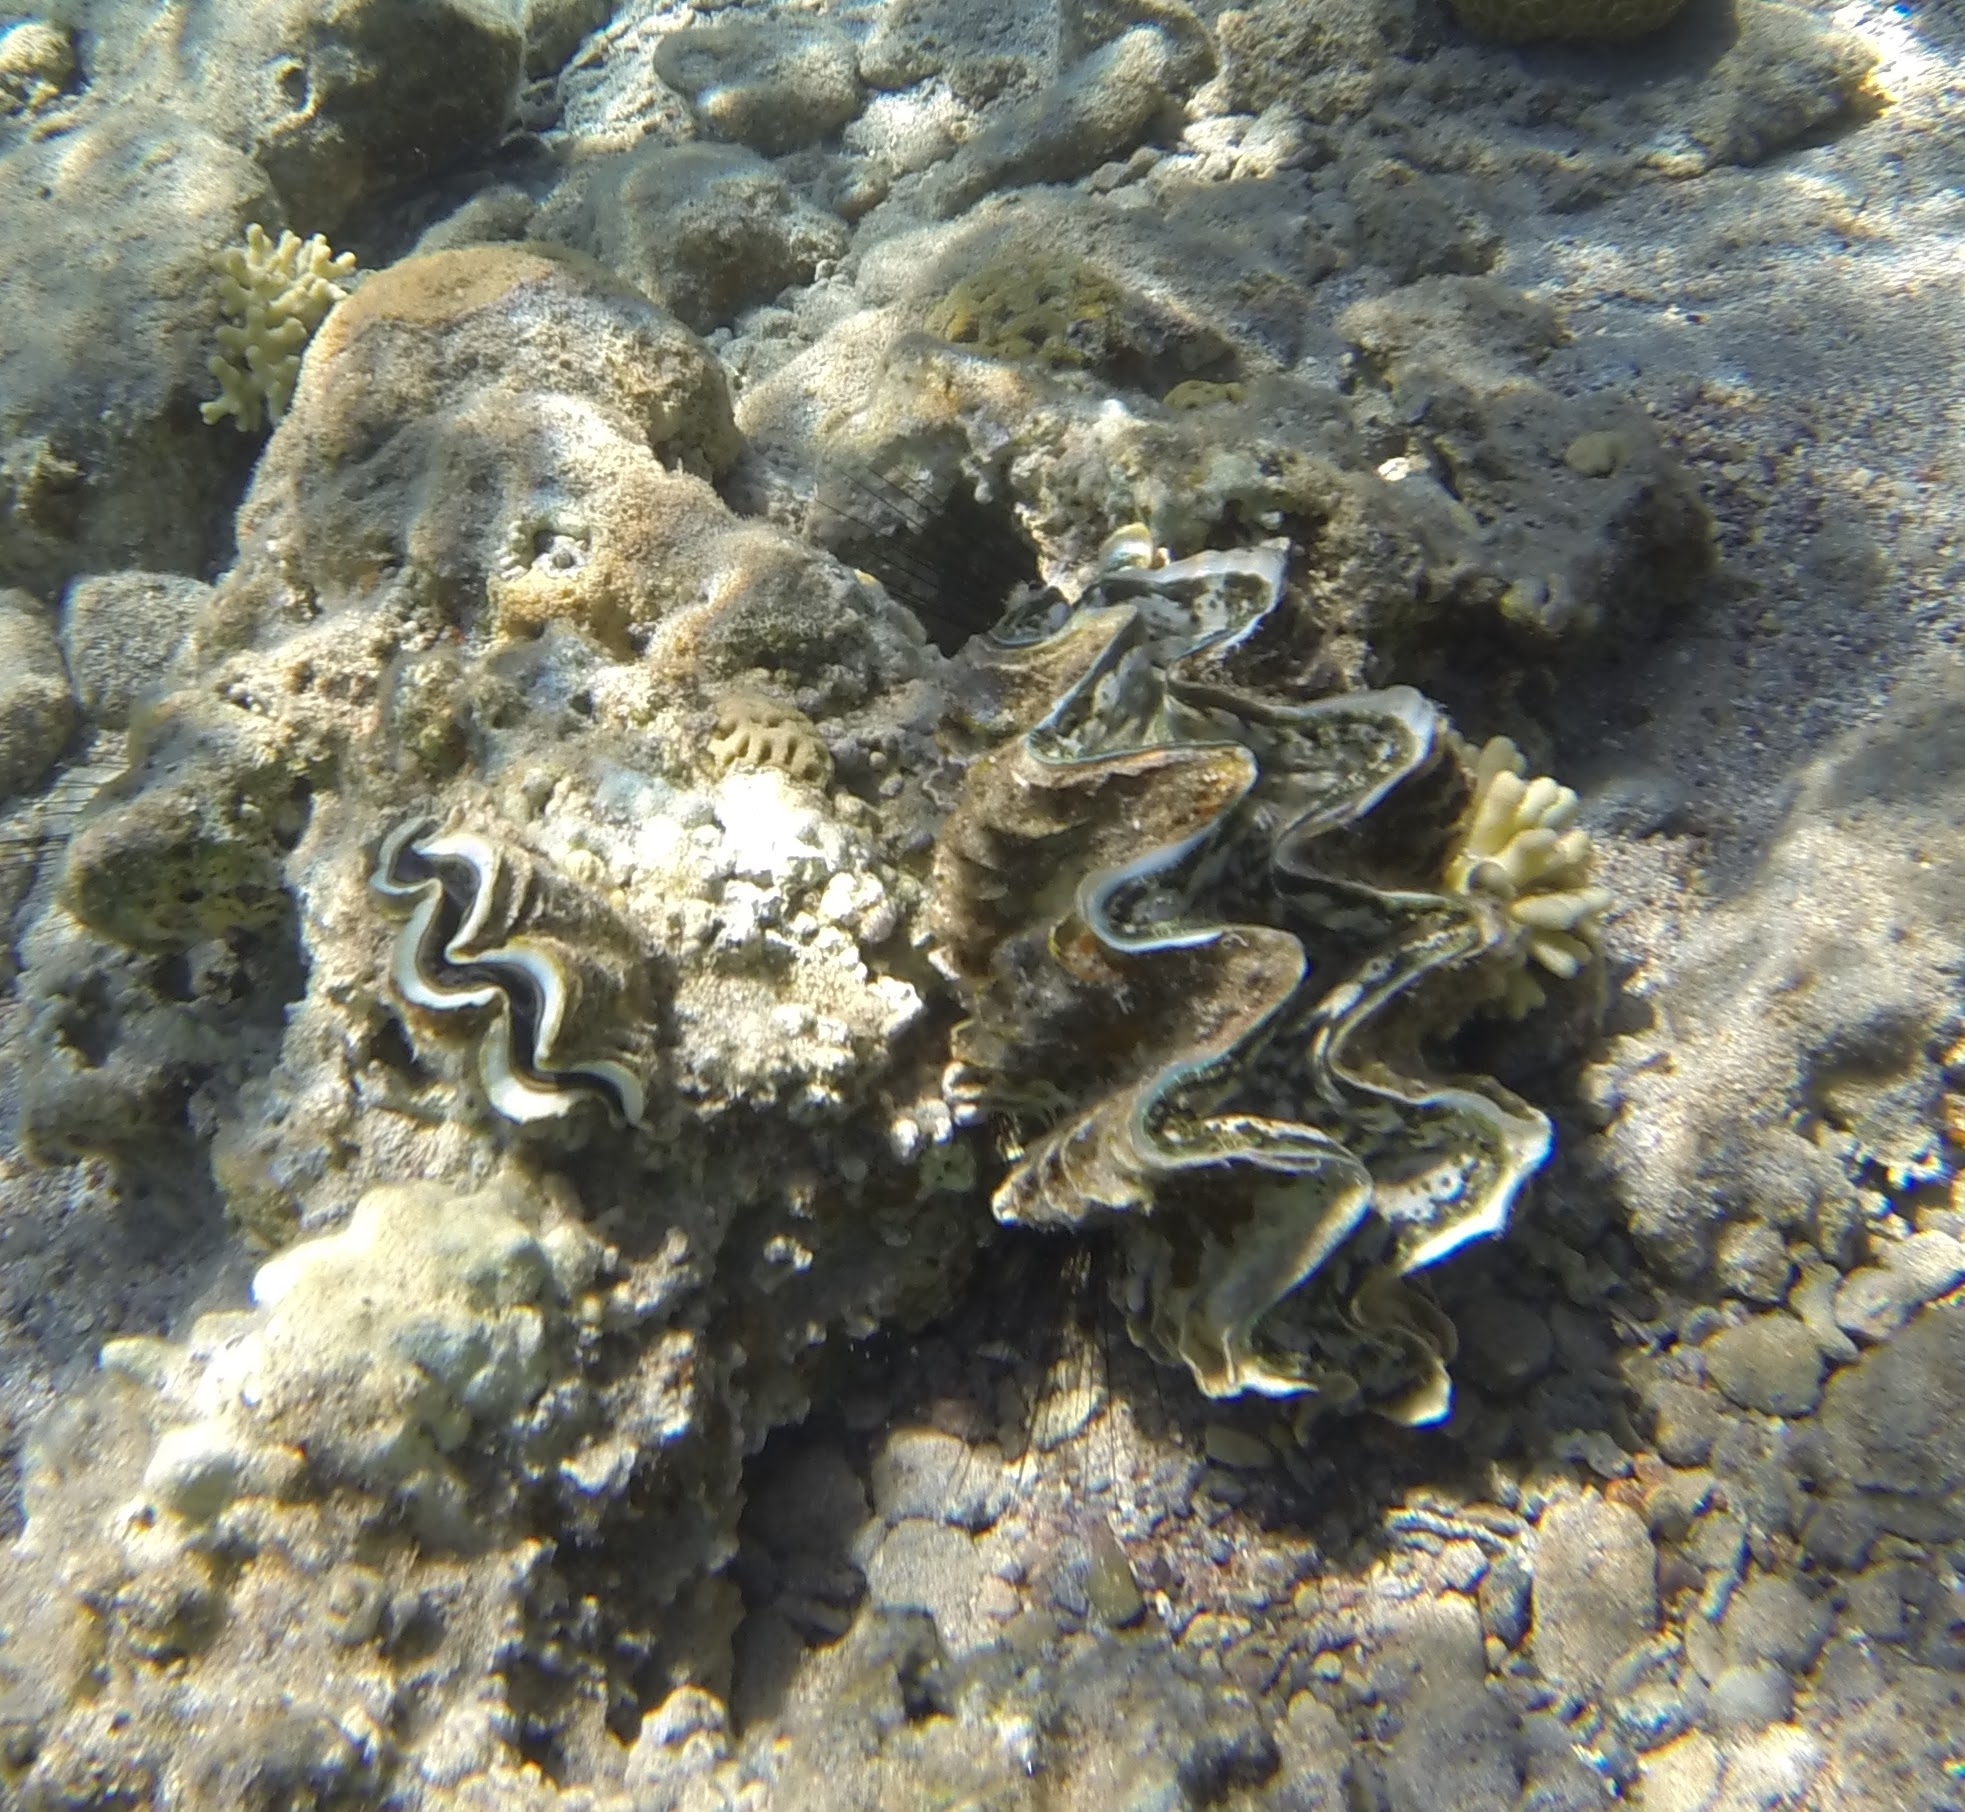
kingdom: Animalia
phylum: Mollusca
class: Bivalvia
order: Cardiida
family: Cardiidae
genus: Tridacna
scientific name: Tridacna squamosina
